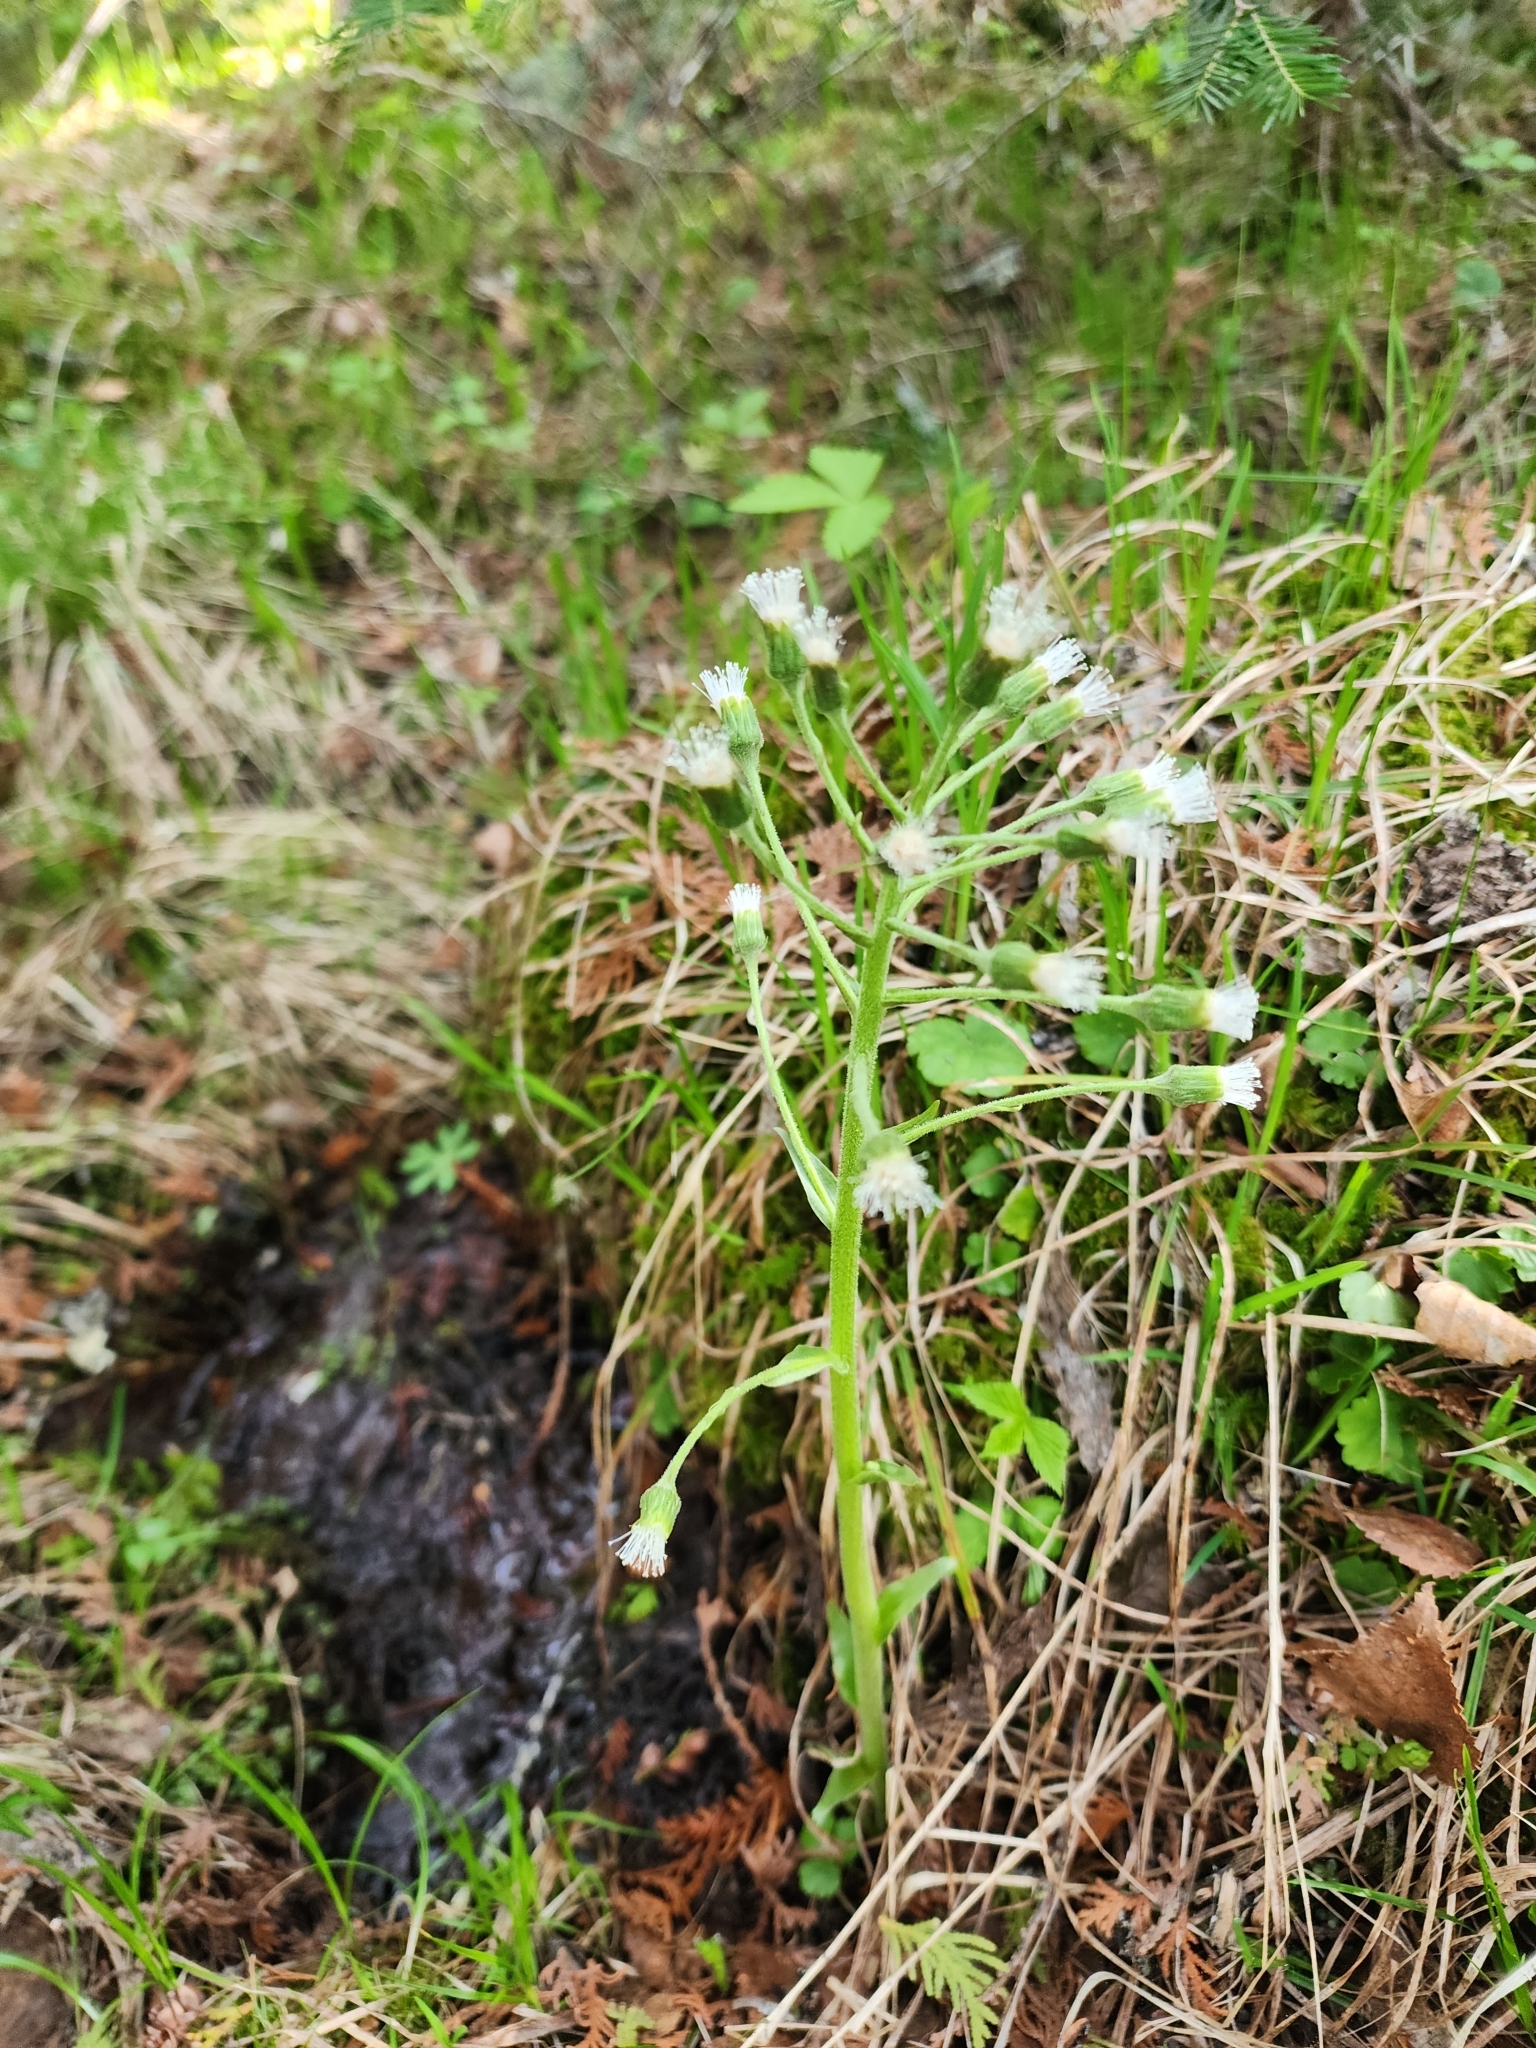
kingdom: Plantae
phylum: Tracheophyta
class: Magnoliopsida
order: Asterales
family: Asteraceae
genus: Petasites
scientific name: Petasites frigidus
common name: Arctic butterbur
